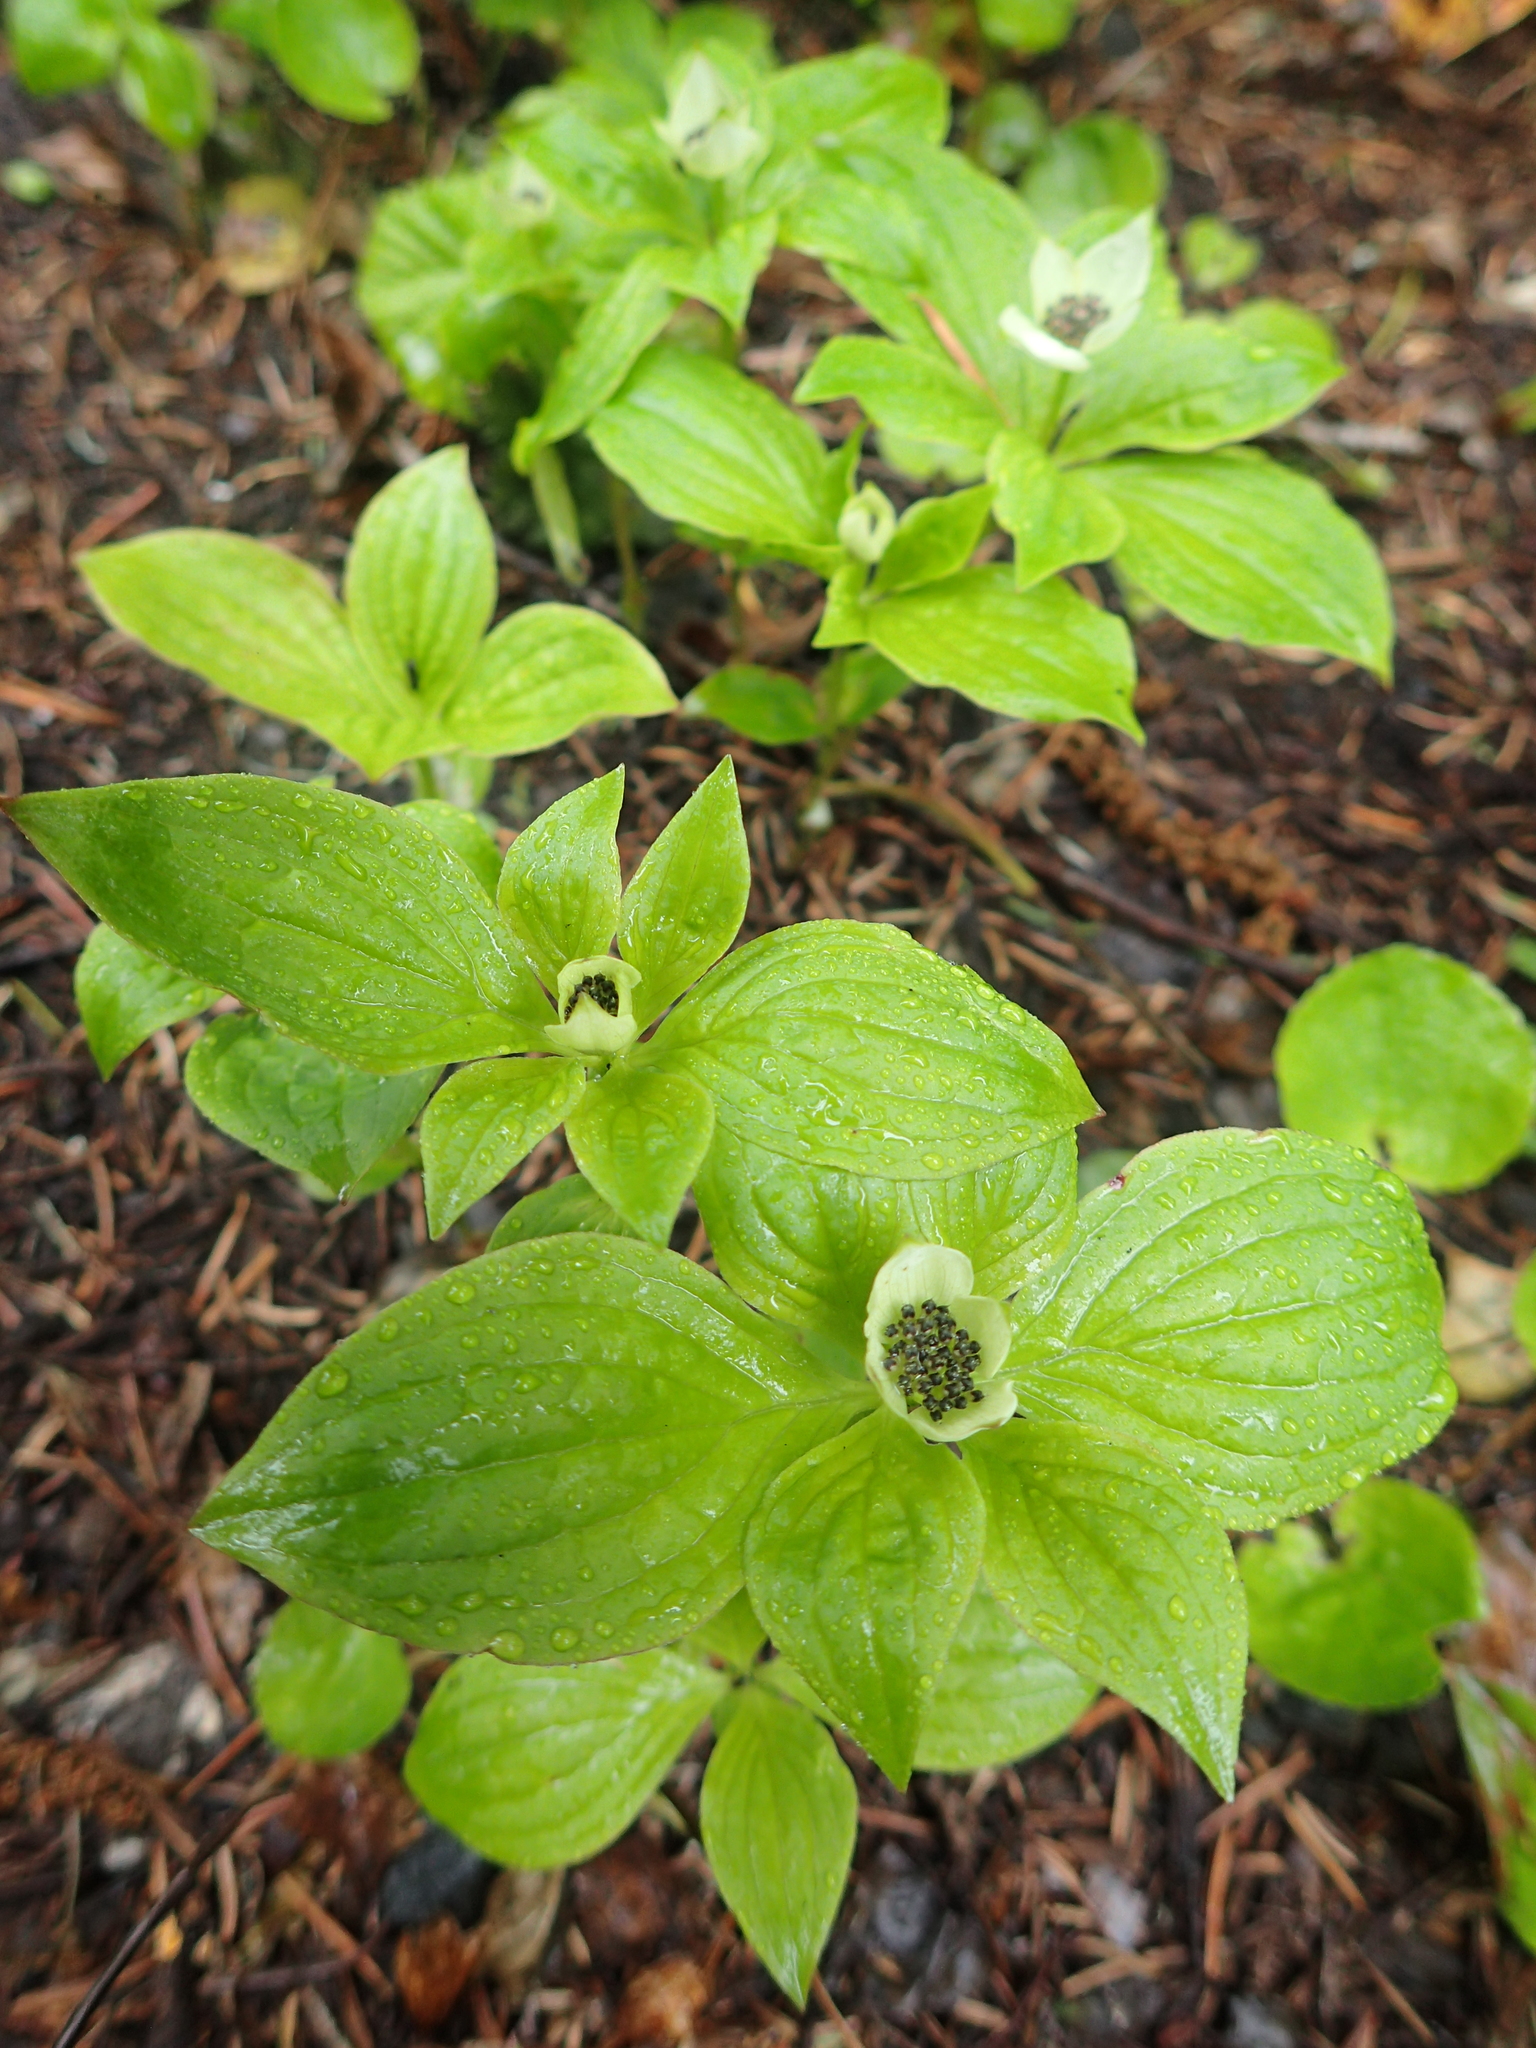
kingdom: Plantae
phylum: Tracheophyta
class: Magnoliopsida
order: Cornales
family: Cornaceae
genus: Cornus
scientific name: Cornus unalaschkensis
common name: Alaska bunchberry
